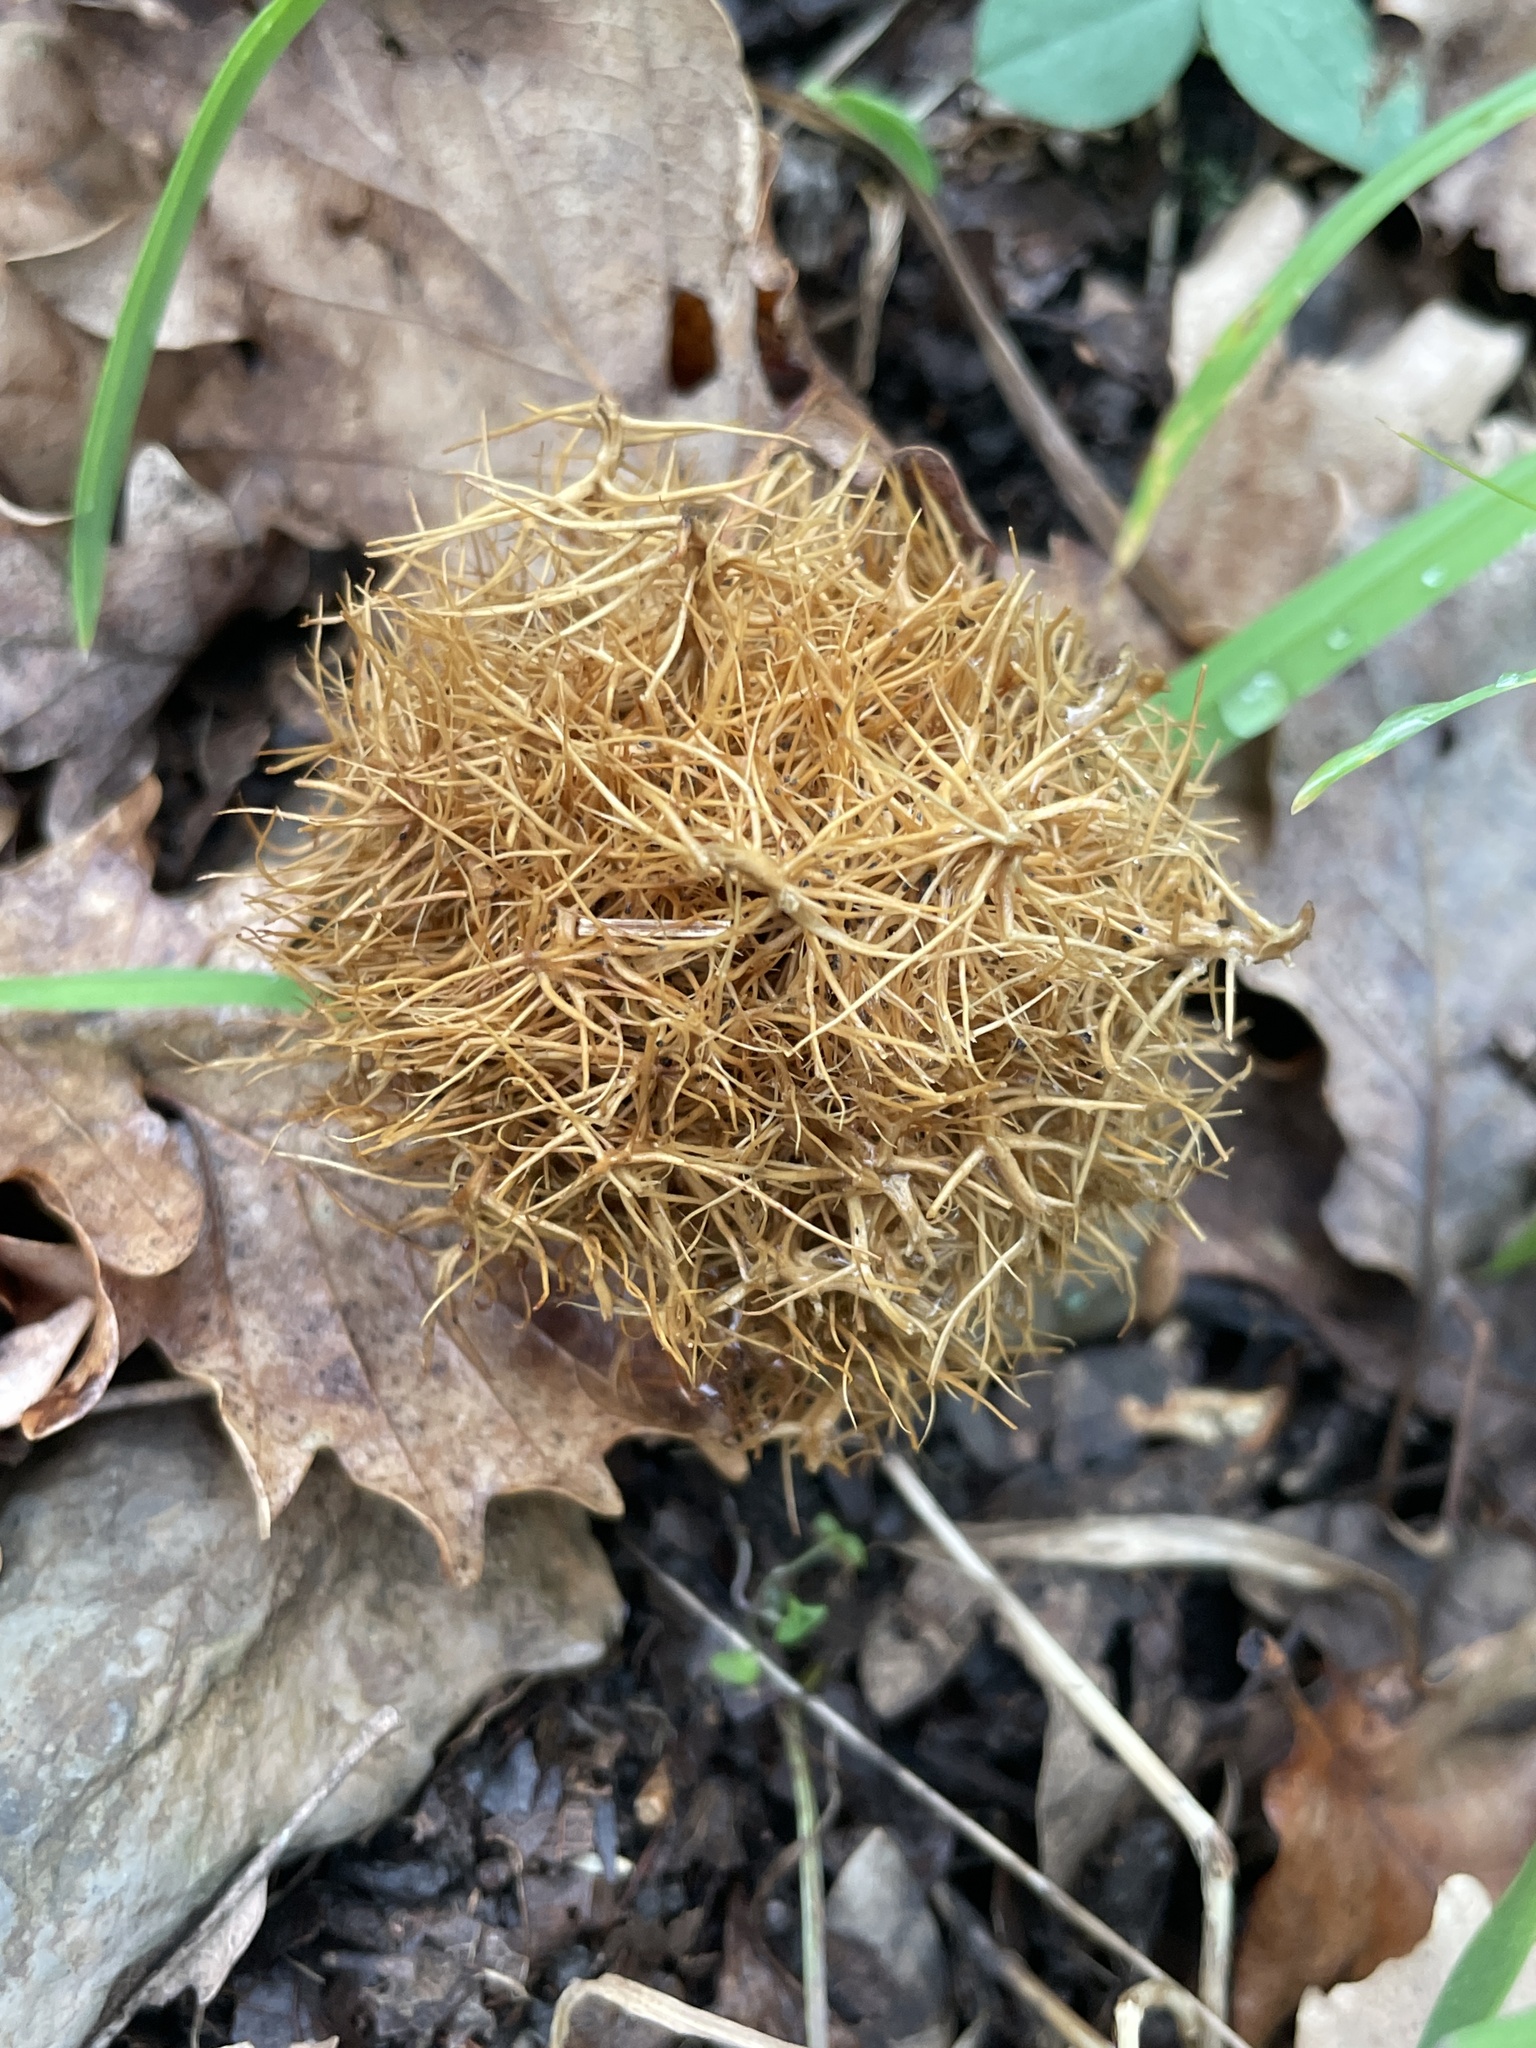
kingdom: Animalia
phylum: Arthropoda
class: Insecta
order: Hymenoptera
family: Cynipidae
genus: Andricus
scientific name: Andricus caputmedusae
